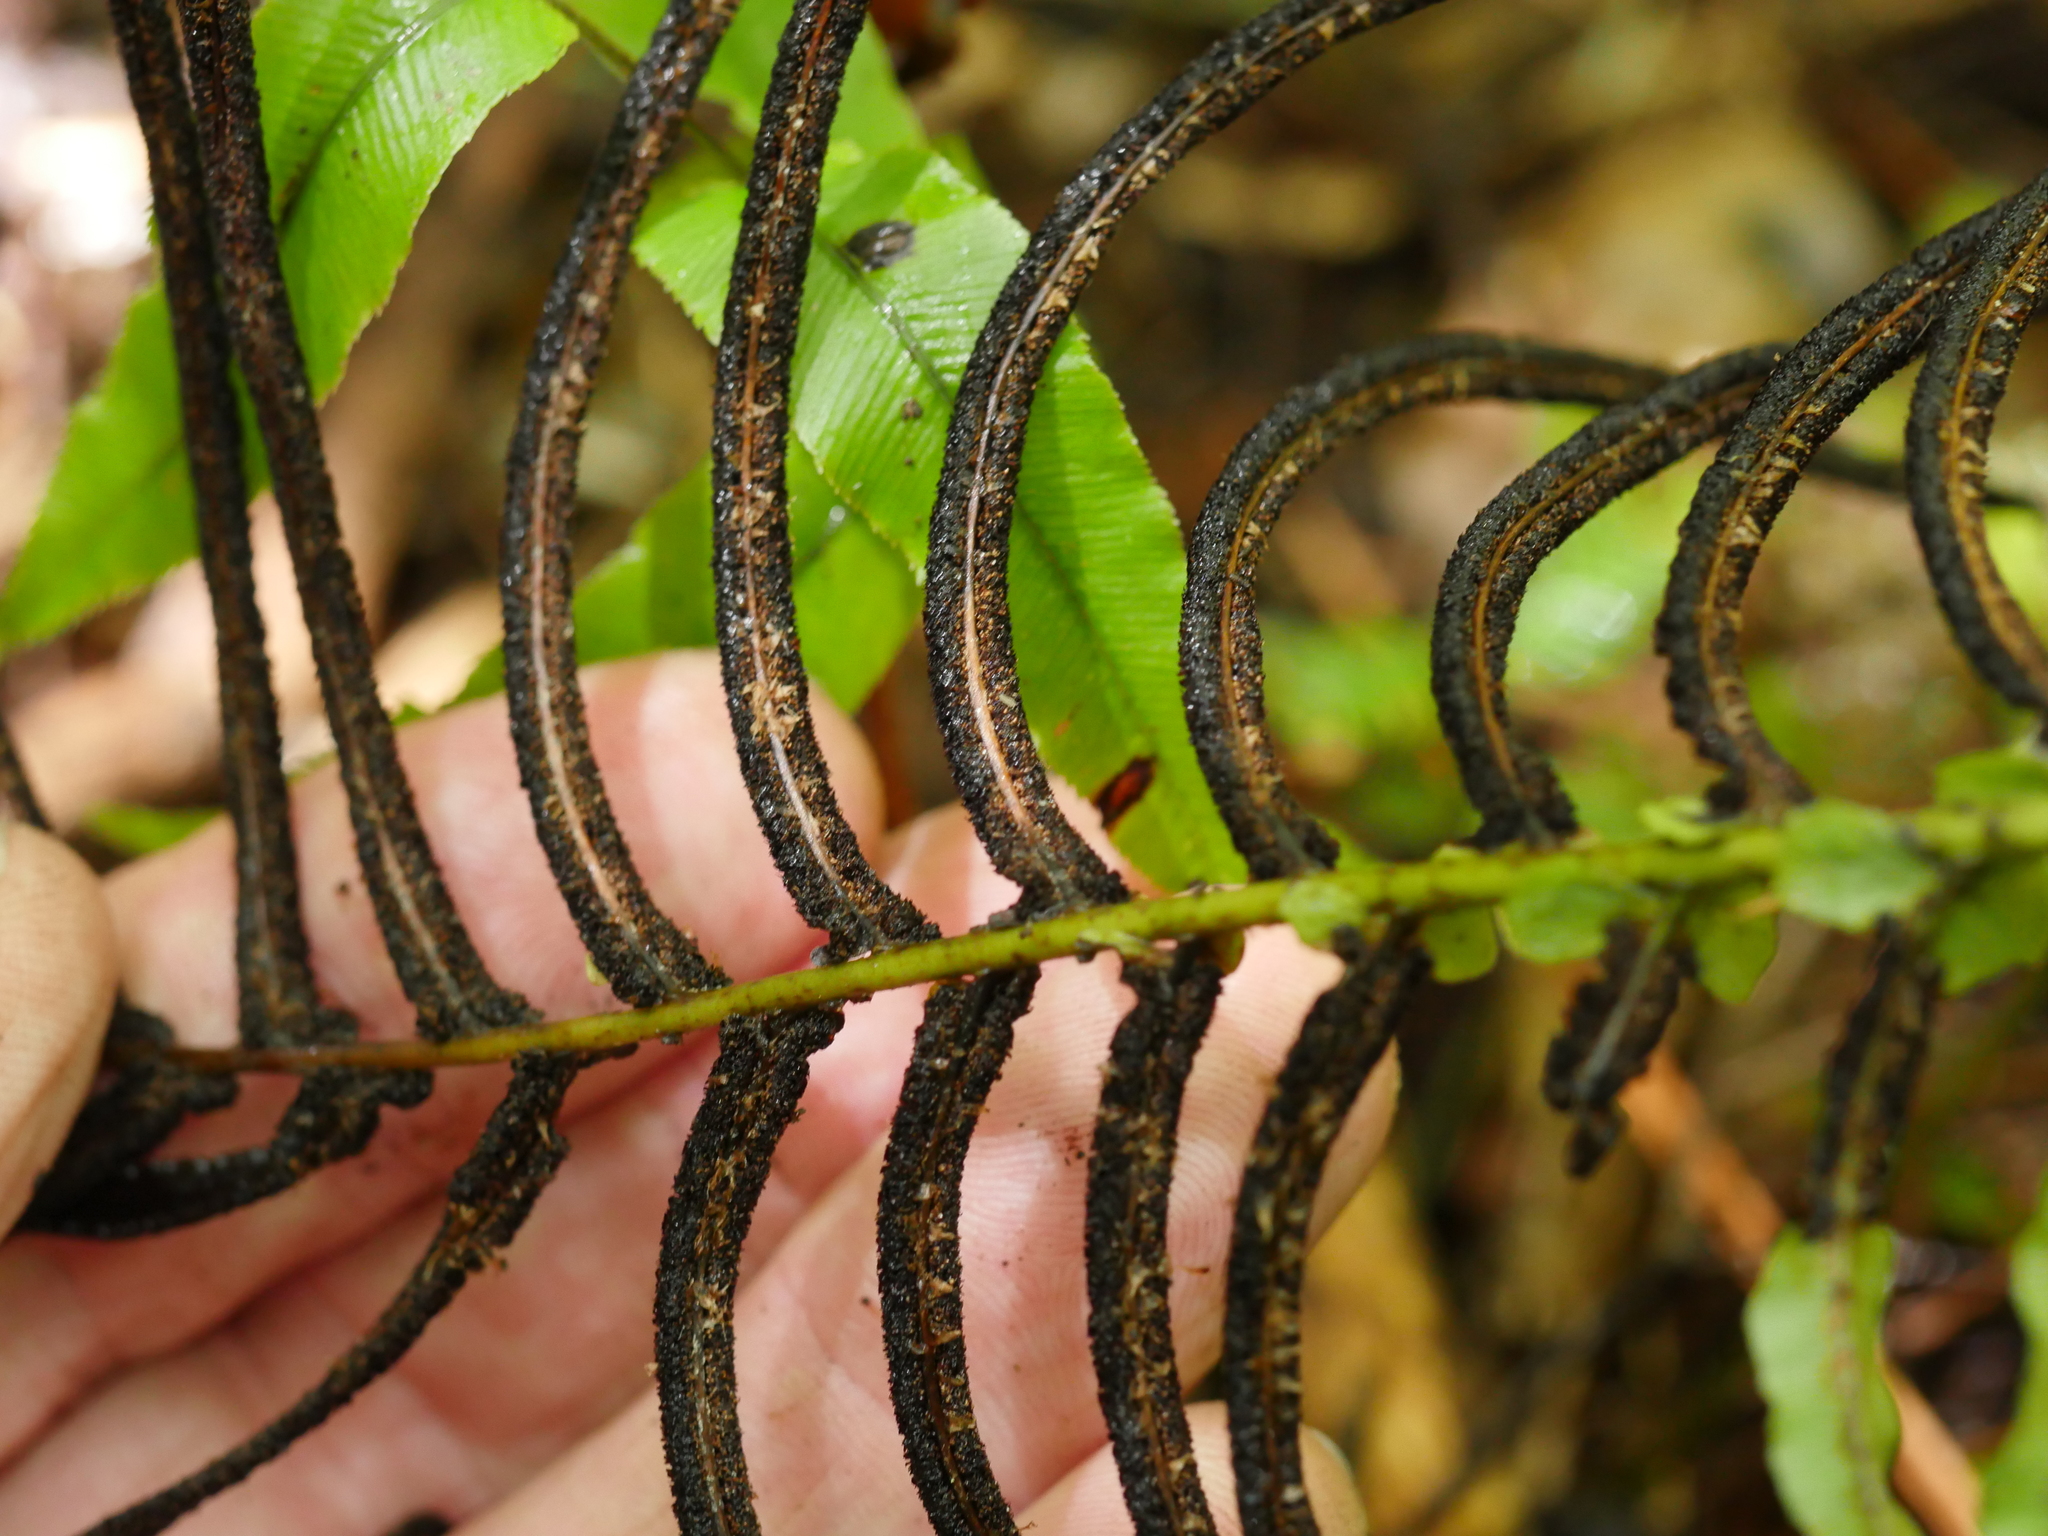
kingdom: Plantae
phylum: Tracheophyta
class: Polypodiopsida
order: Polypodiales
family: Blechnaceae
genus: Parablechnum
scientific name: Parablechnum novae-zelandiae
